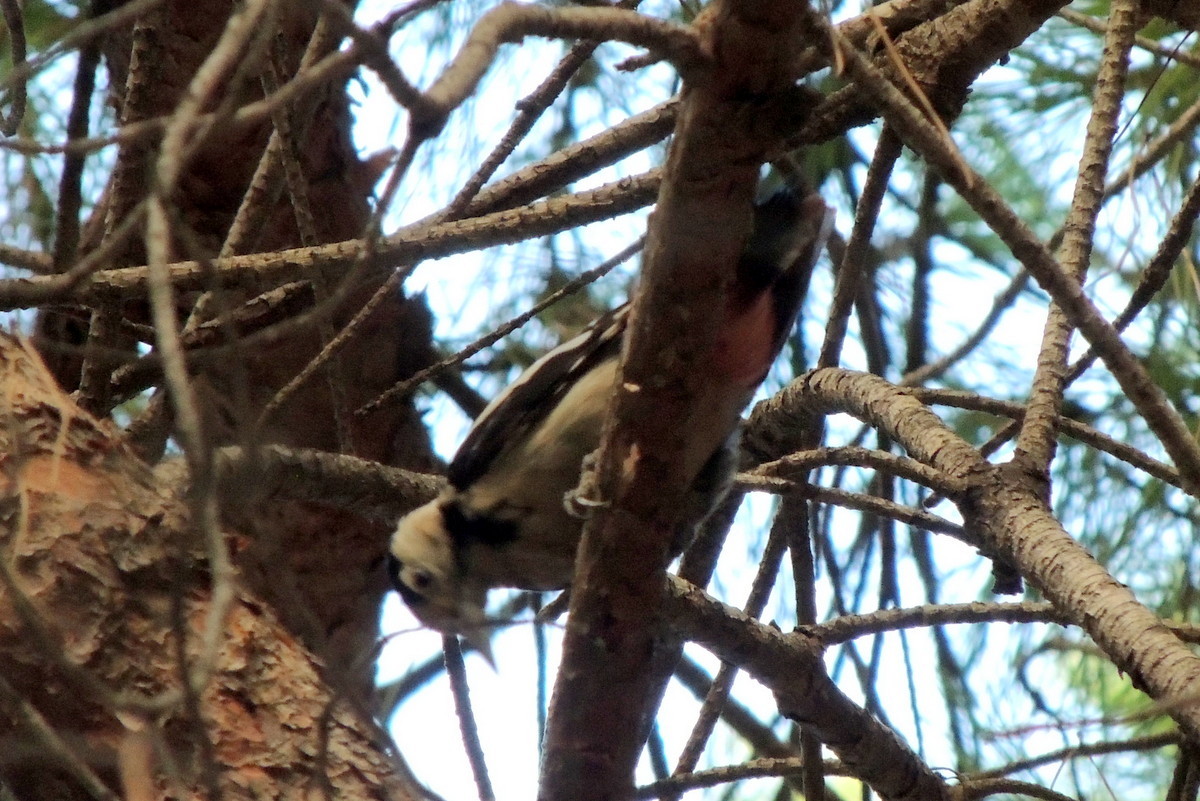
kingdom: Animalia
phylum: Chordata
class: Aves
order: Piciformes
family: Picidae
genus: Dendrocopos
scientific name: Dendrocopos syriacus
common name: Syrian woodpecker
